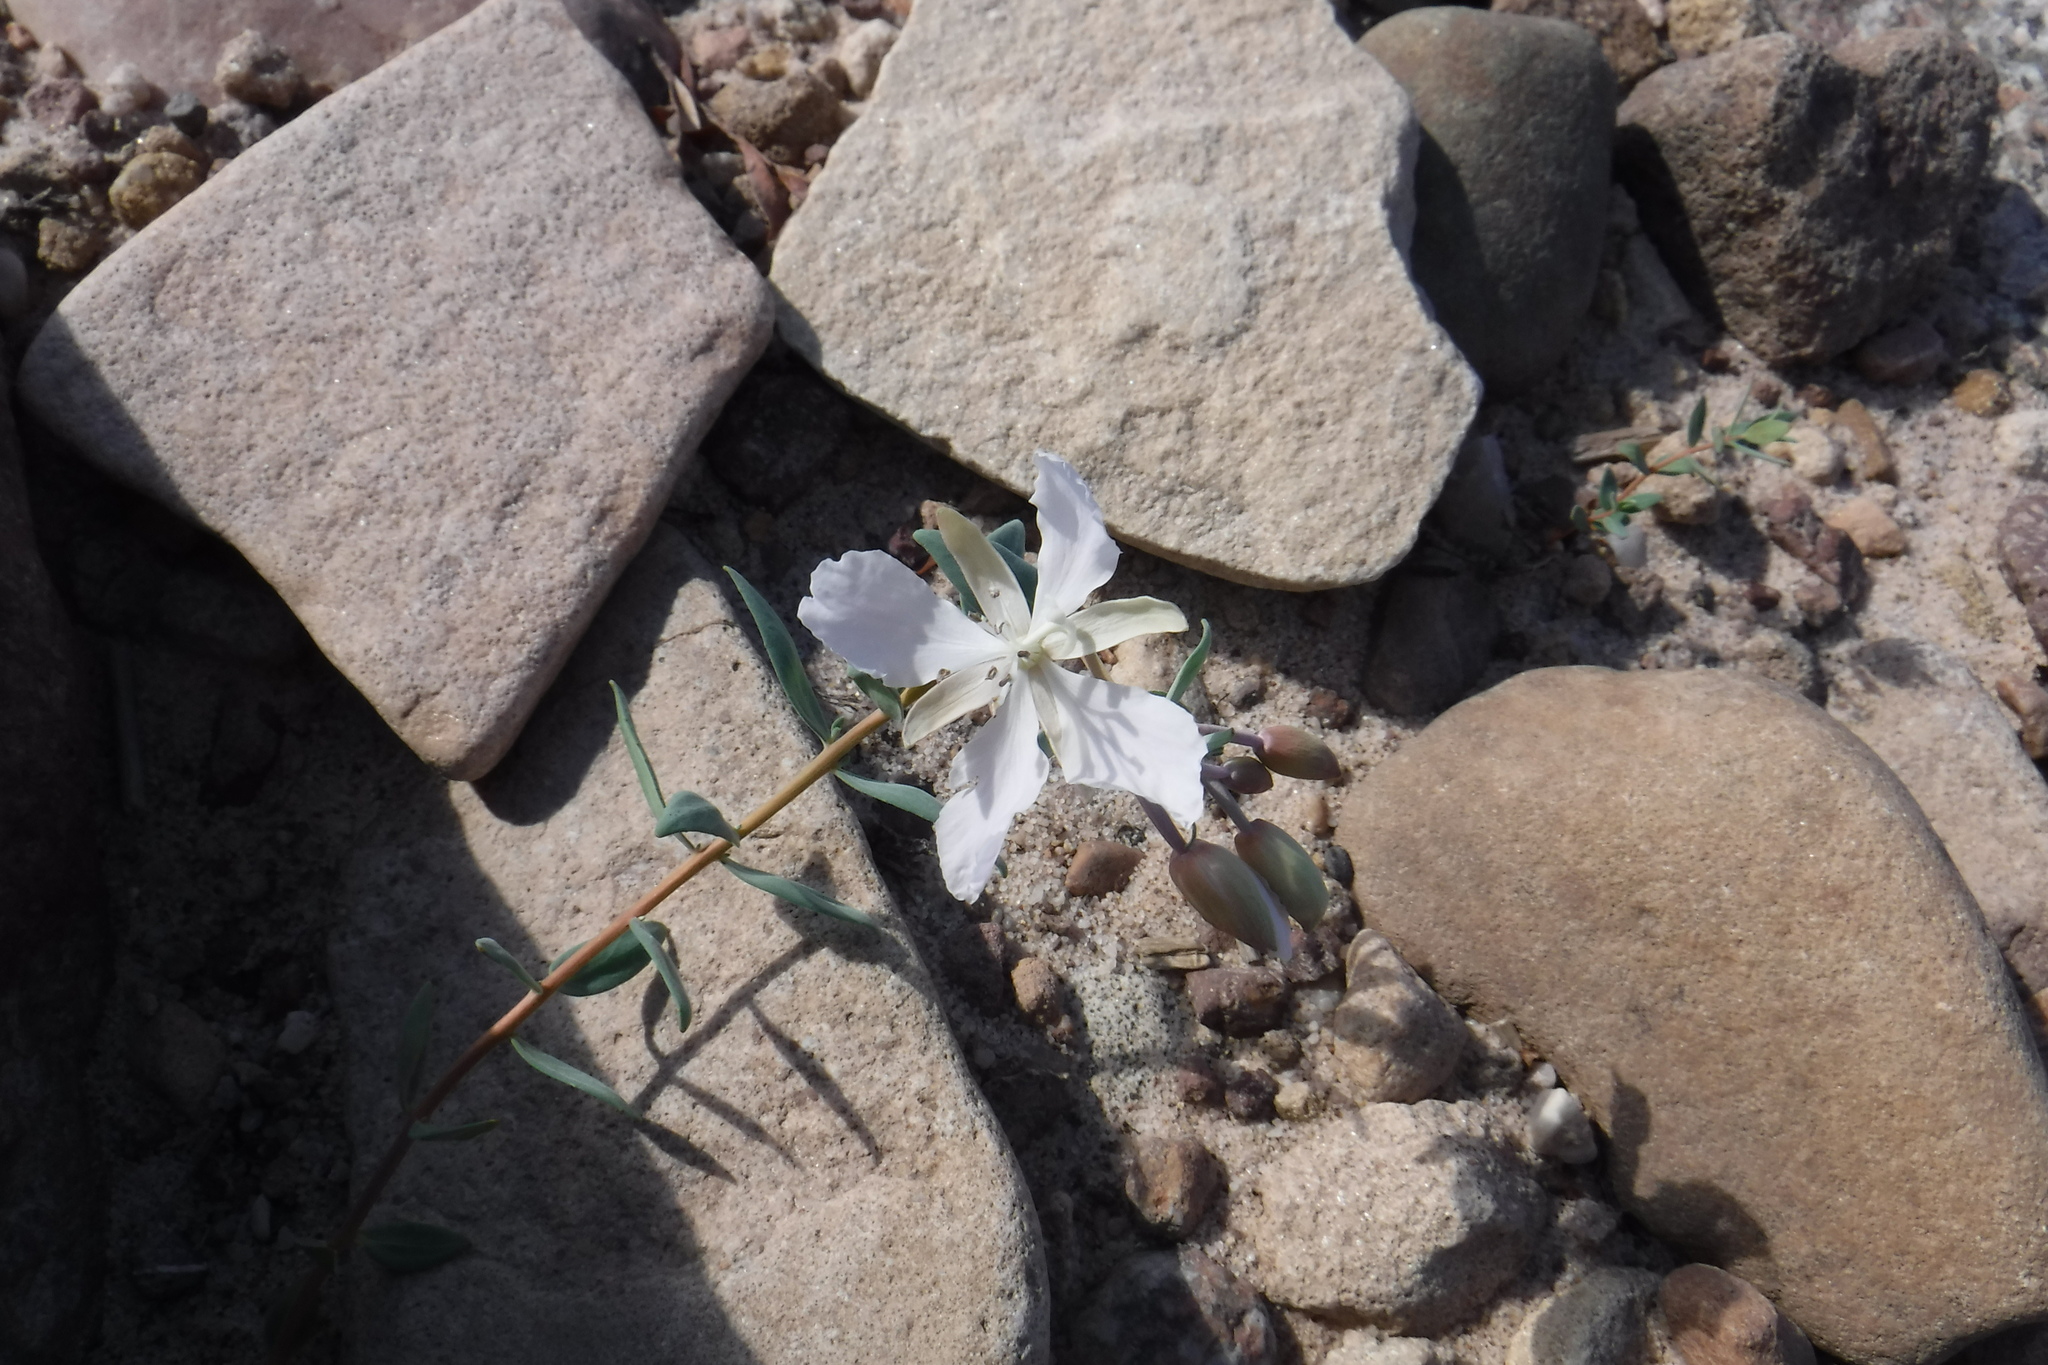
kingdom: Plantae
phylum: Tracheophyta
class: Magnoliopsida
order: Myrtales
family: Onagraceae
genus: Chamaenerion
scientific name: Chamaenerion latifolium
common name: Dwarf fireweed
